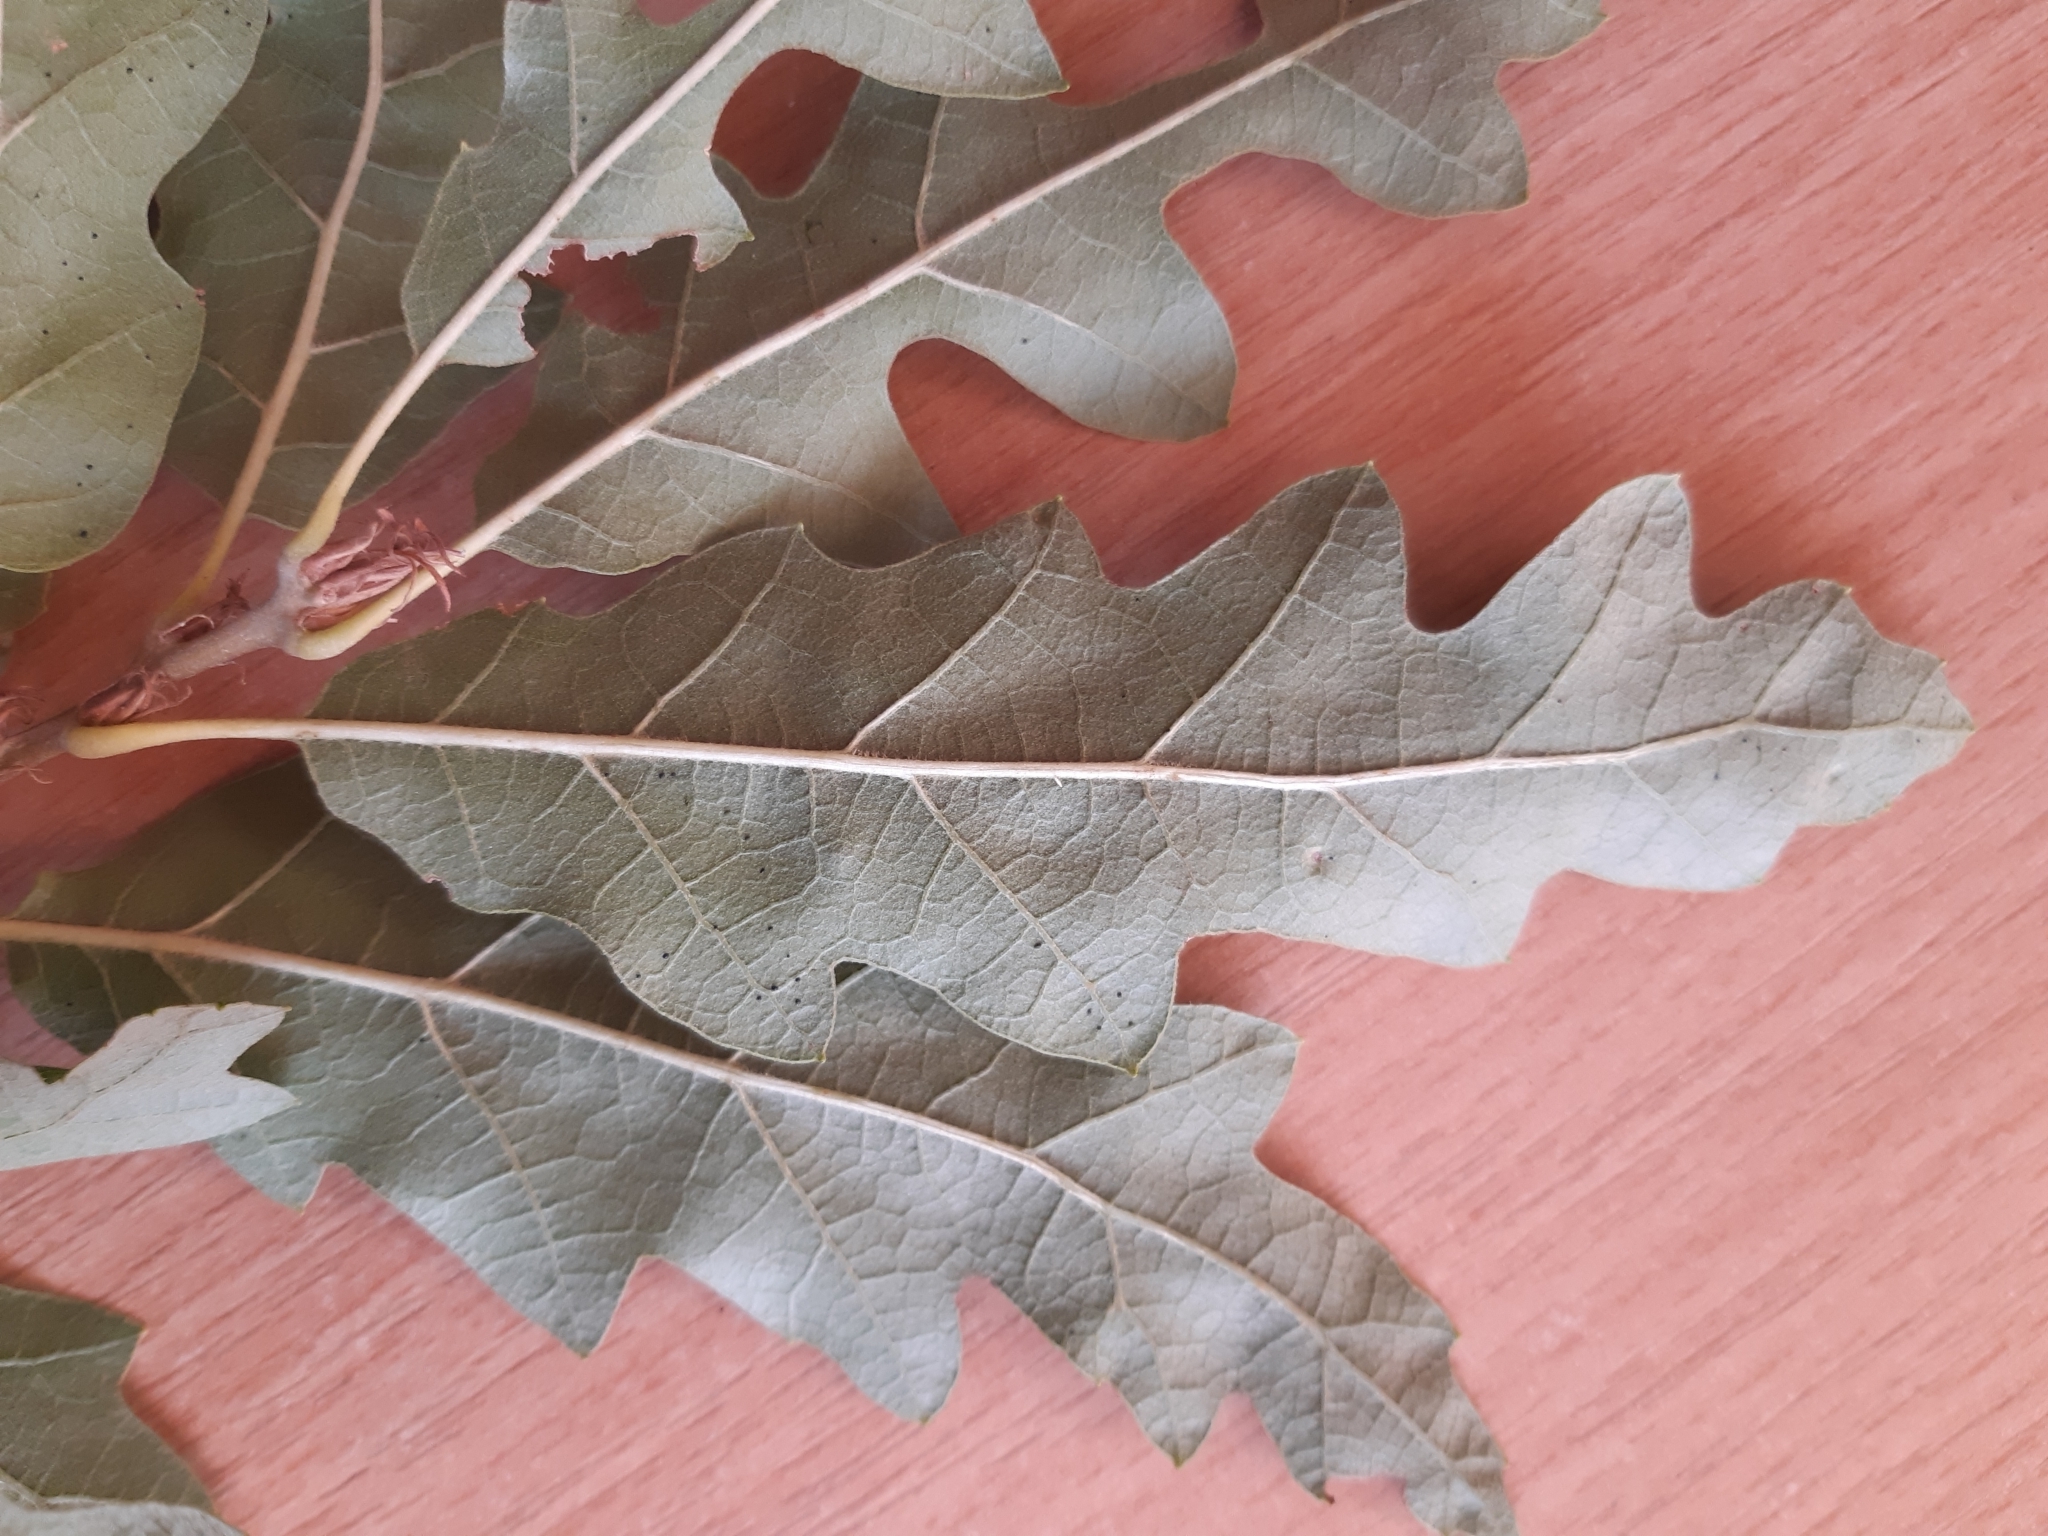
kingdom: Plantae
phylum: Tracheophyta
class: Magnoliopsida
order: Fagales
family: Fagaceae
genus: Quercus
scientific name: Quercus cerris
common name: Turkey oak
